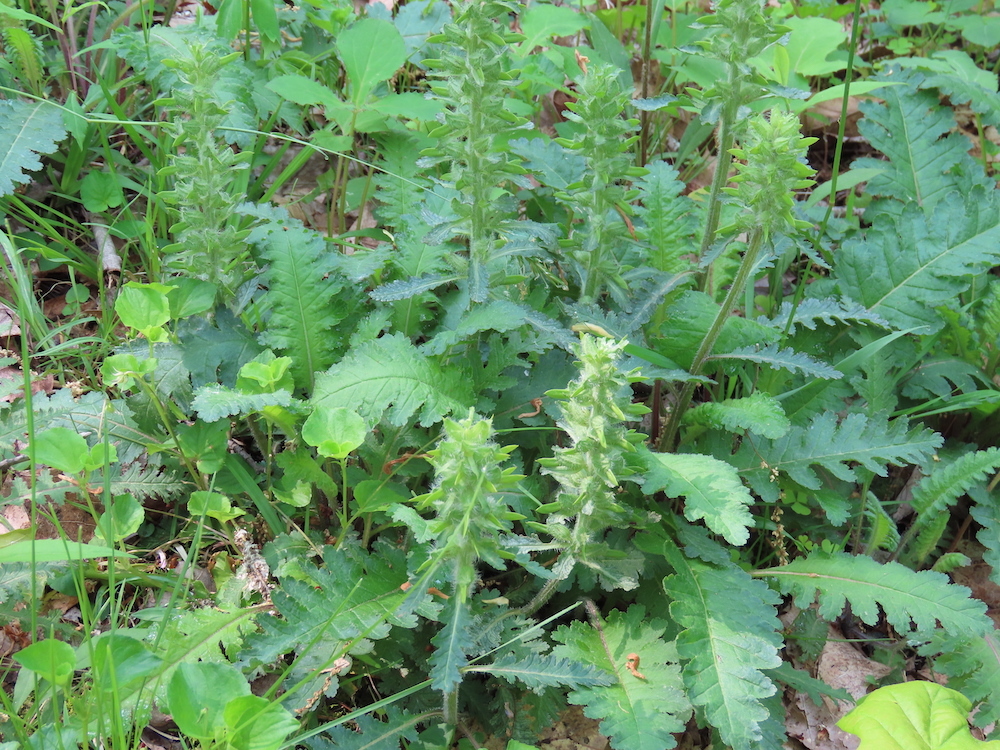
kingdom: Plantae
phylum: Tracheophyta
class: Magnoliopsida
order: Lamiales
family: Orobanchaceae
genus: Pedicularis
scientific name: Pedicularis canadensis
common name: Early lousewort
